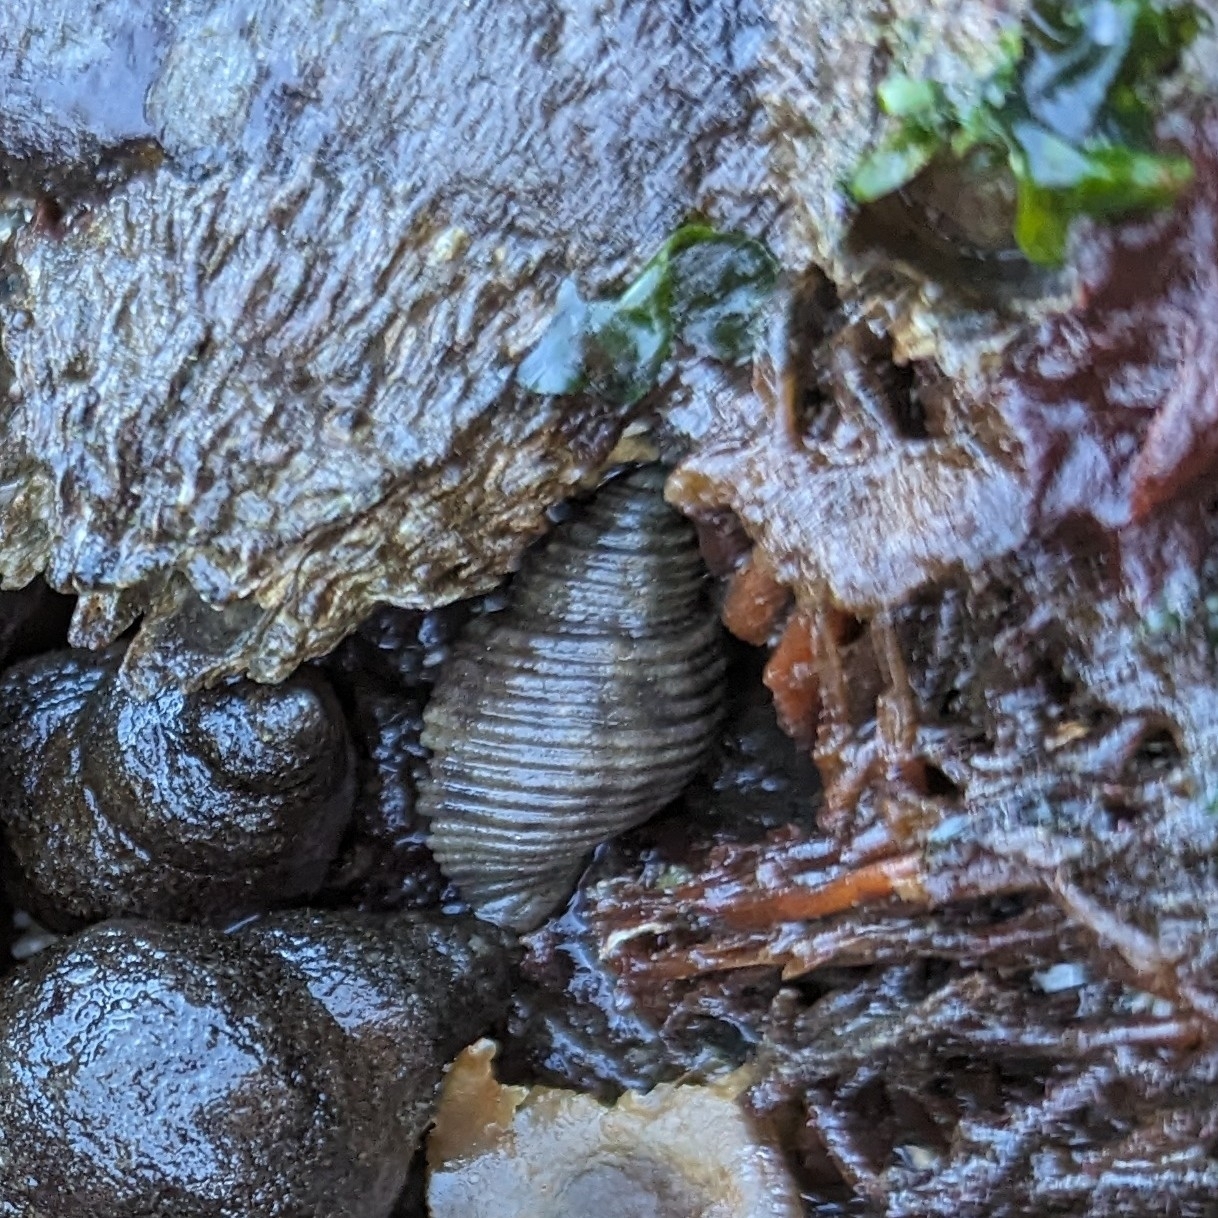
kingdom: Animalia
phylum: Mollusca
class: Gastropoda
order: Neogastropoda
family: Muricidae
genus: Nucella
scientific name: Nucella canaliculata
